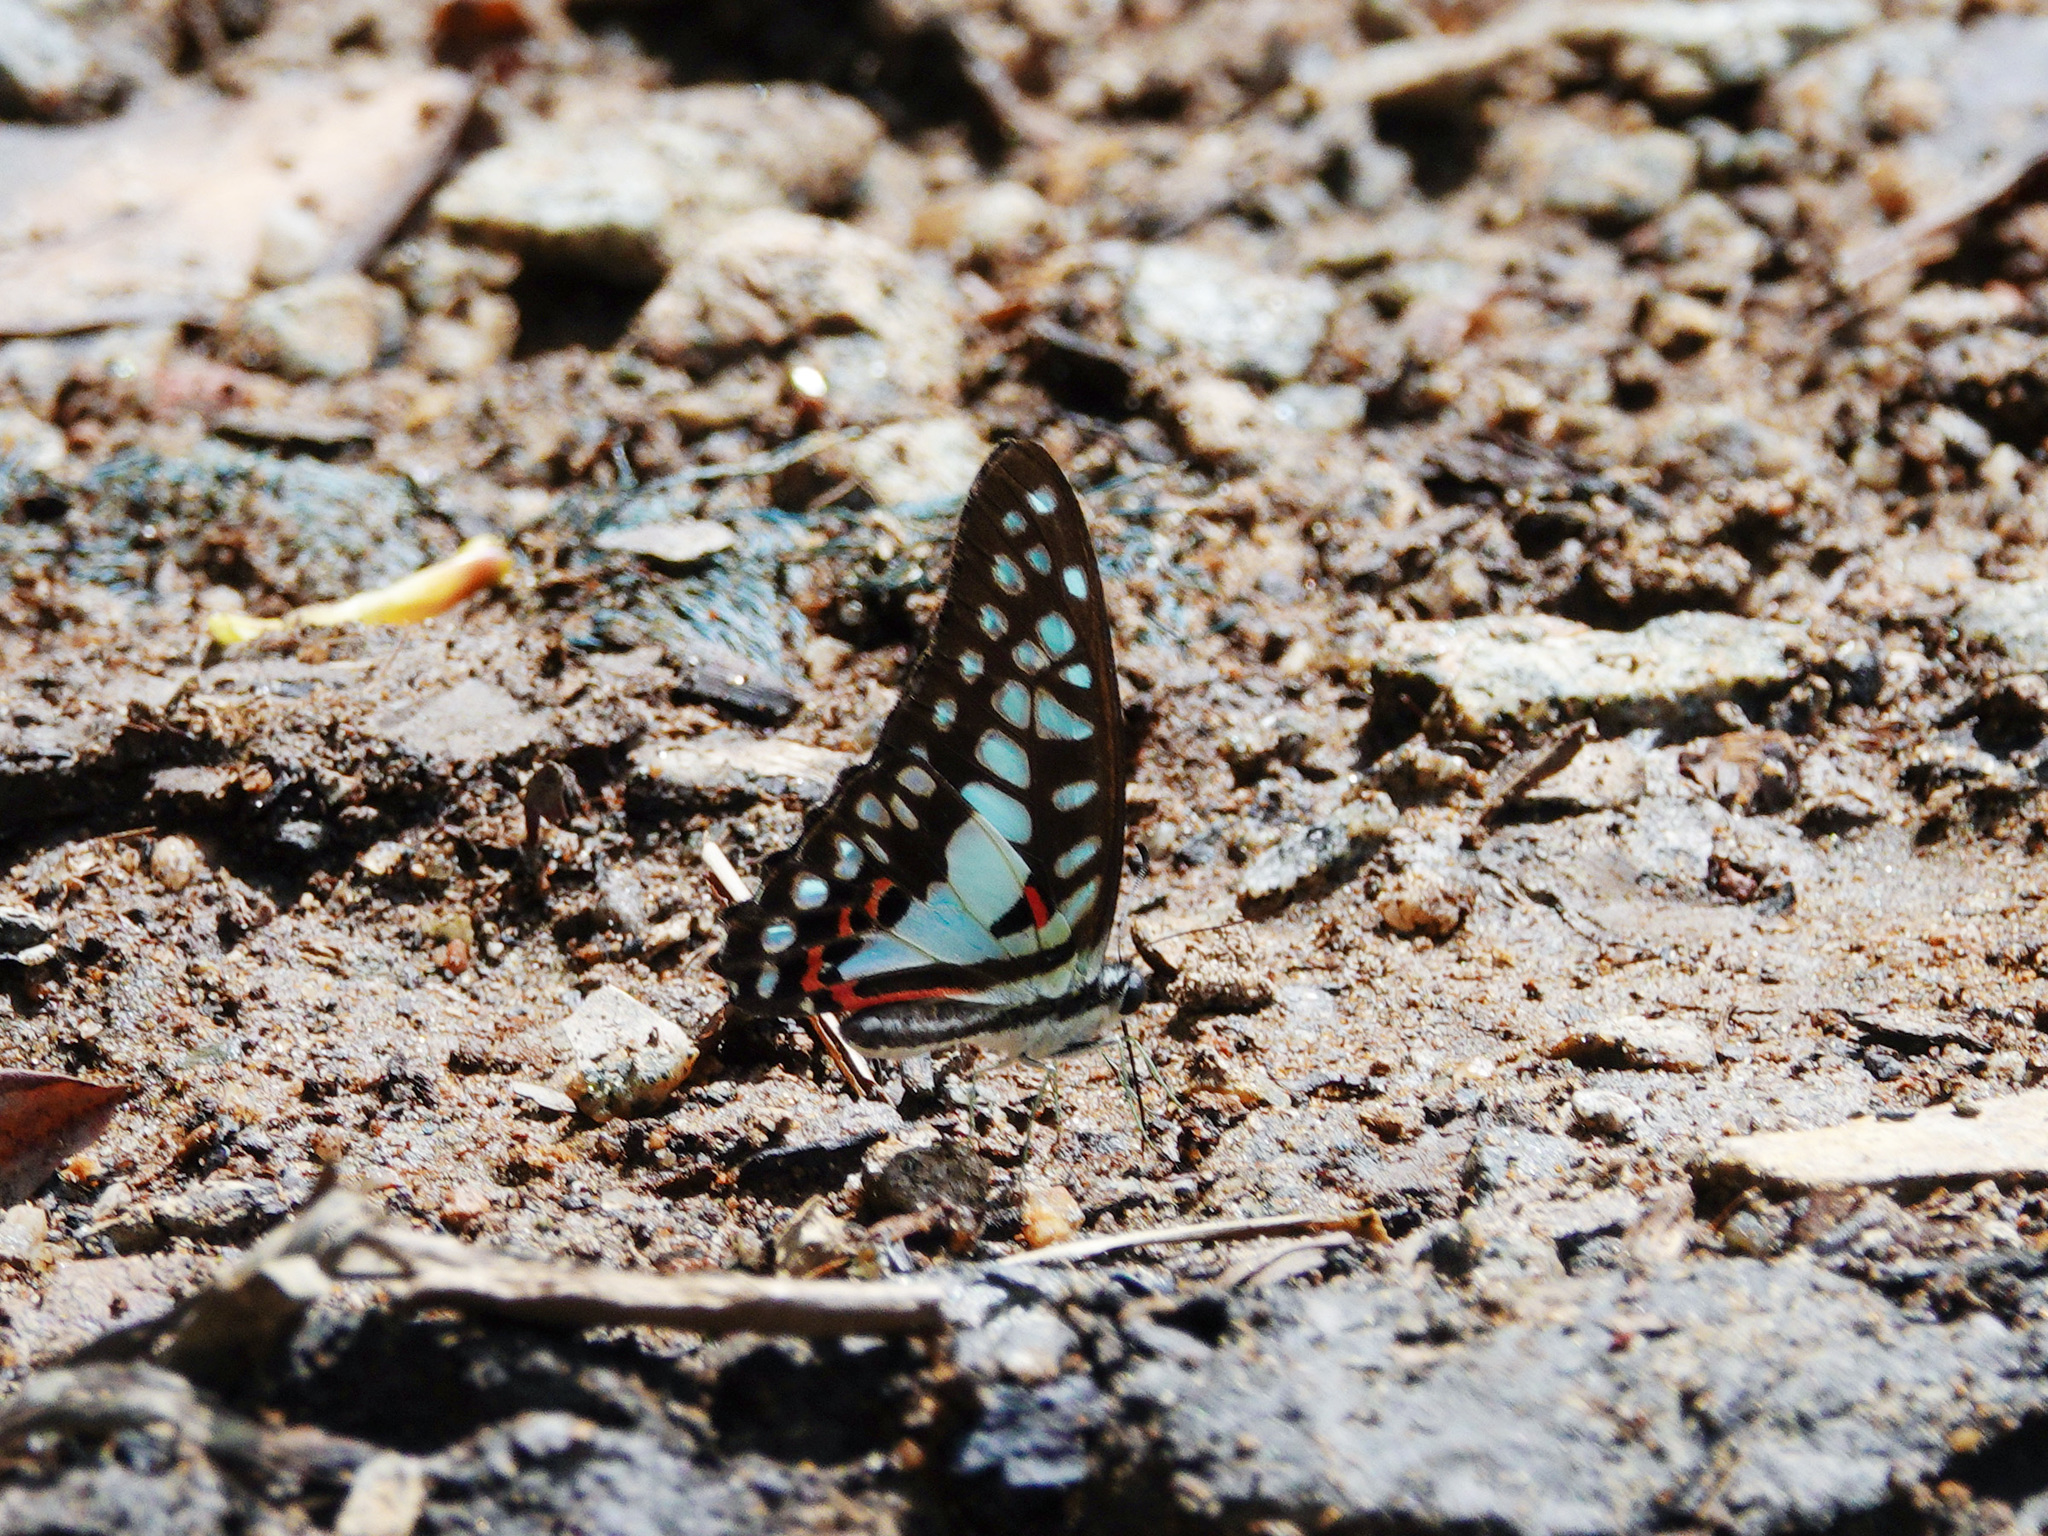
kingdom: Animalia
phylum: Arthropoda
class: Insecta
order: Lepidoptera
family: Papilionidae
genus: Graphium
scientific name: Graphium doson
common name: Common jay
